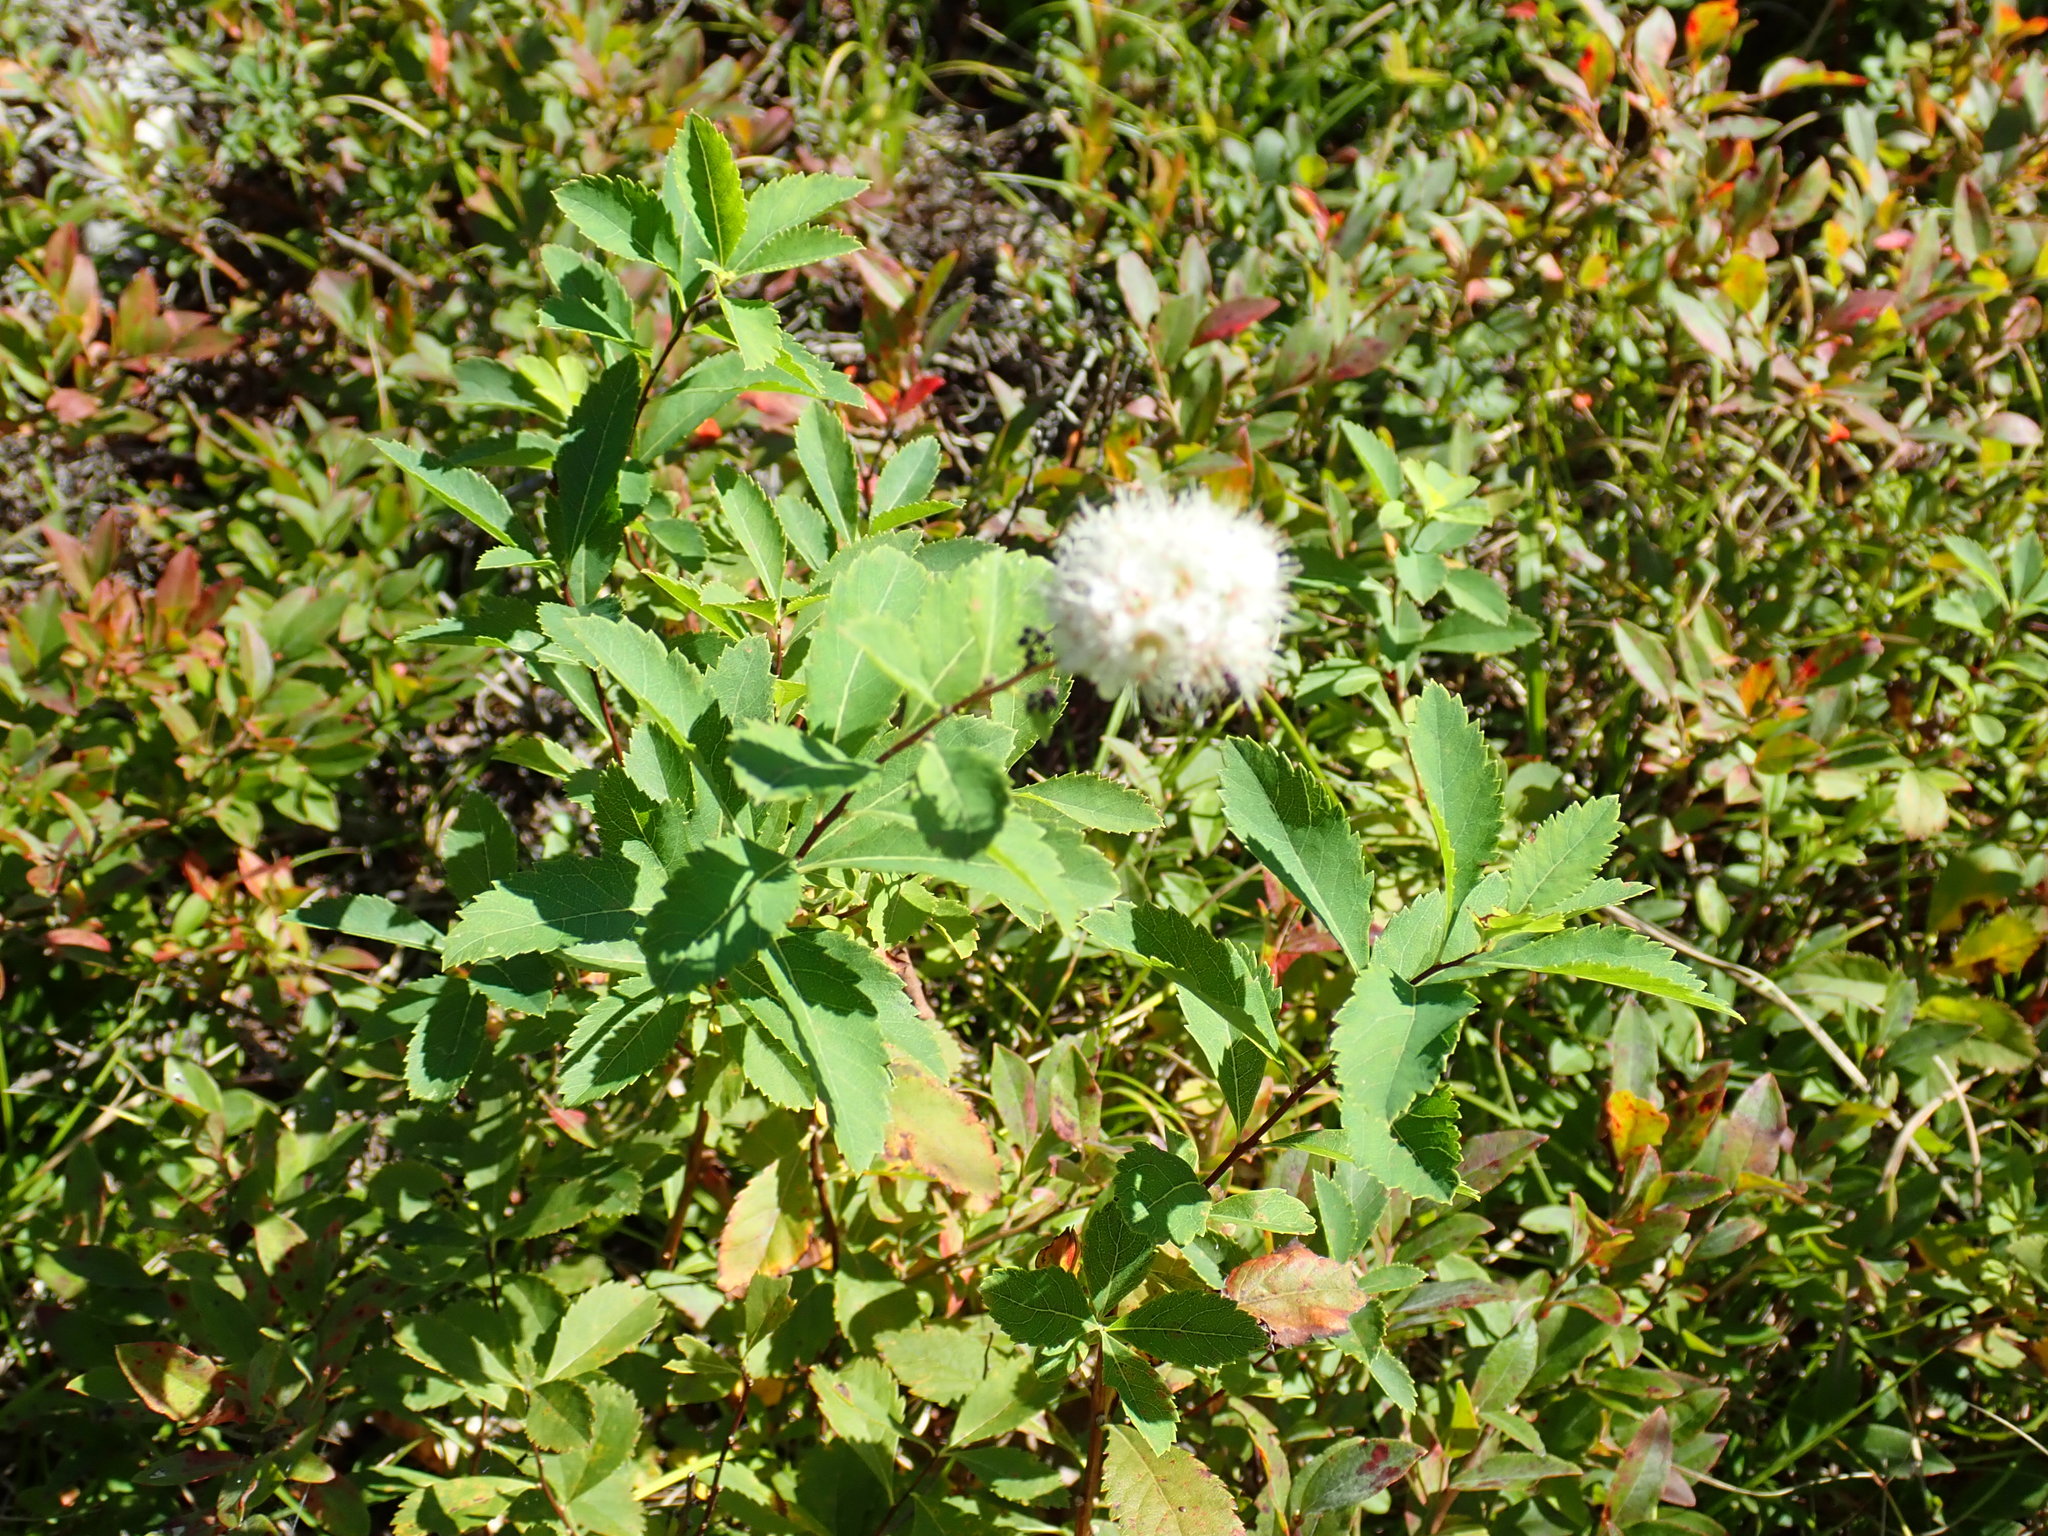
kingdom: Plantae
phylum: Tracheophyta
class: Magnoliopsida
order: Rosales
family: Rosaceae
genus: Spiraea
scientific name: Spiraea alba
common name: Pale bridewort
